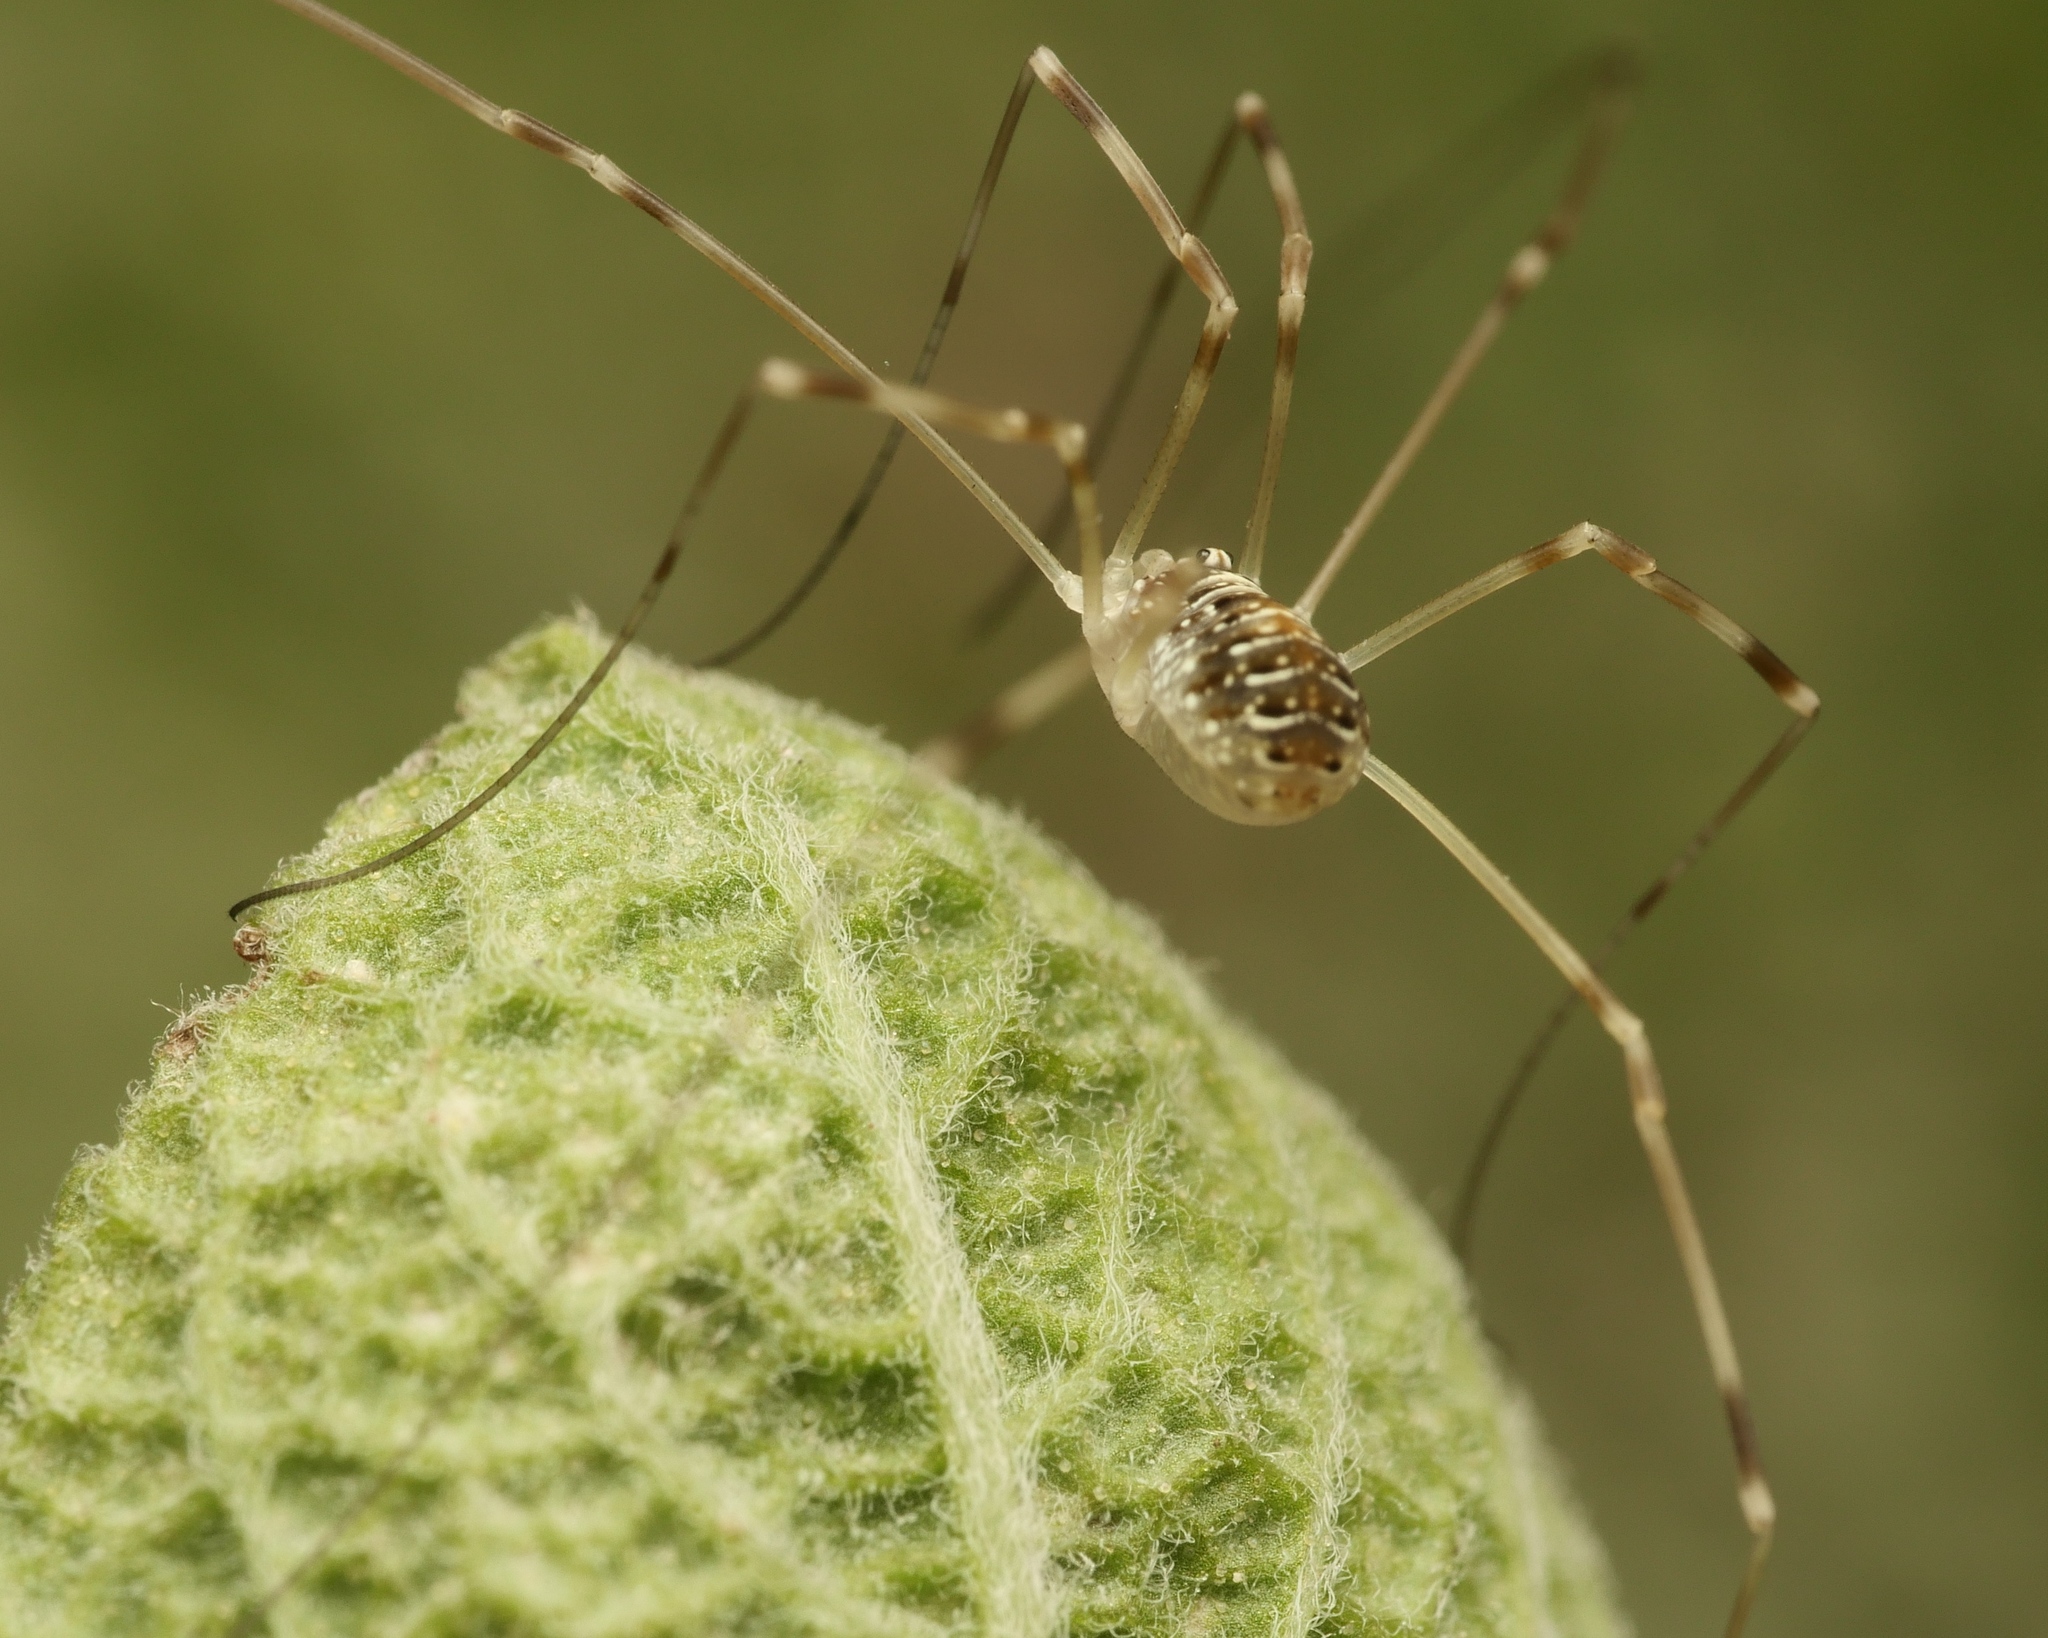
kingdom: Animalia
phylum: Arthropoda
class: Arachnida
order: Opiliones
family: Phalangiidae
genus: Opilio
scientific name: Opilio canestrinii
